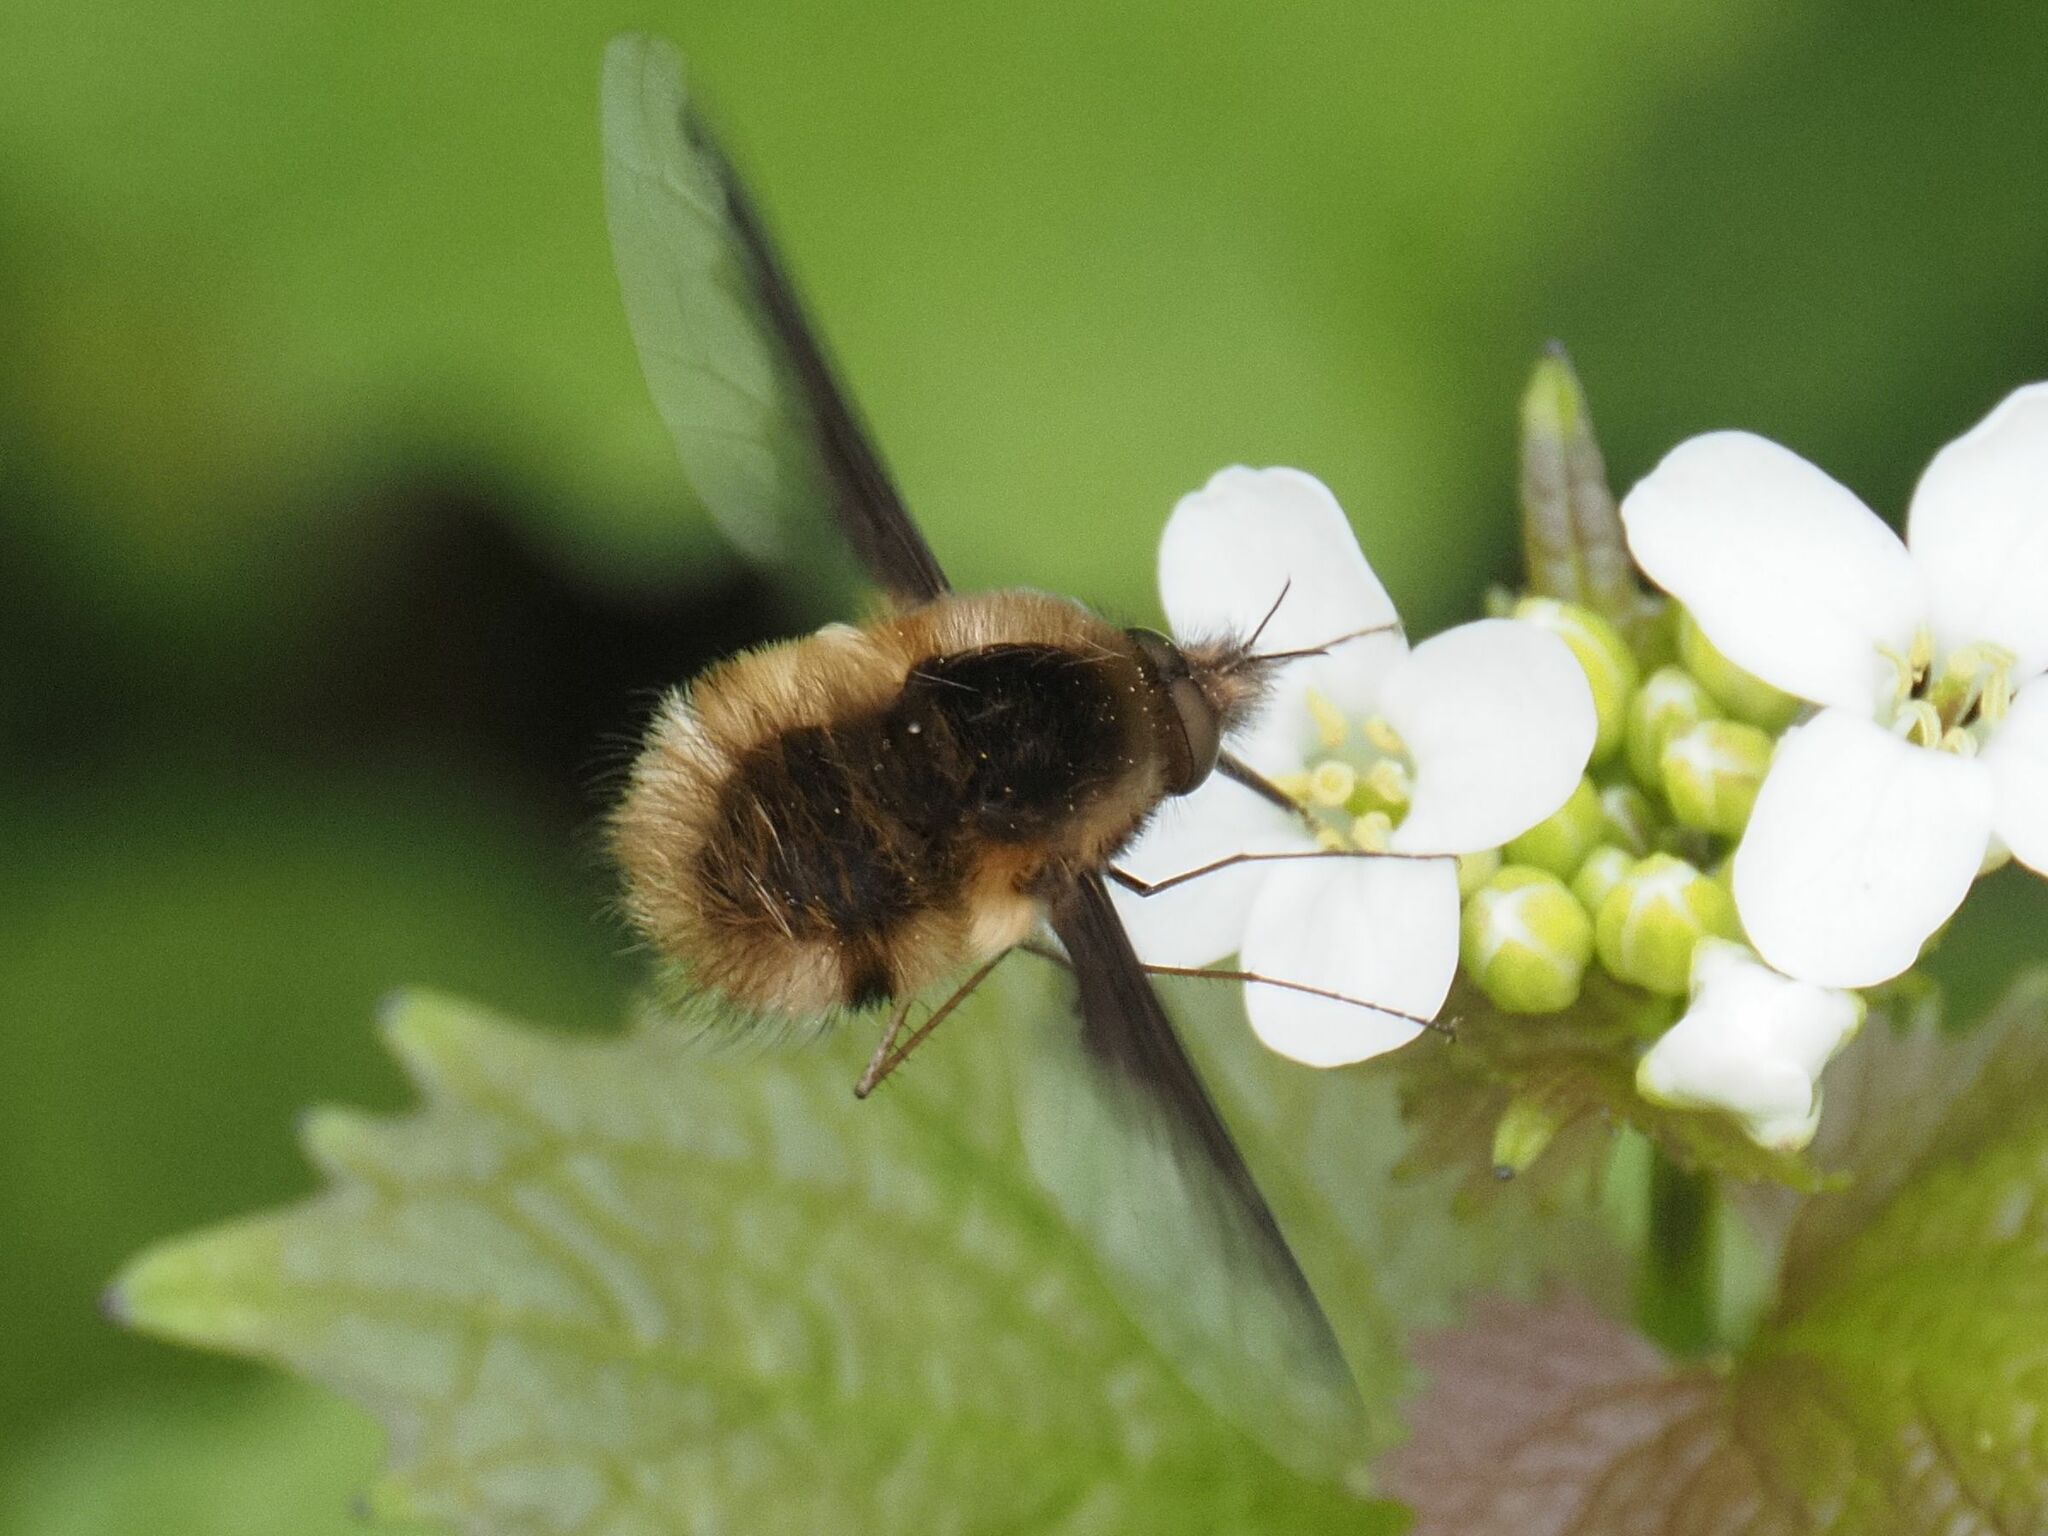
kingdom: Animalia
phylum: Arthropoda
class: Insecta
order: Diptera
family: Bombyliidae
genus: Bombylius
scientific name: Bombylius major
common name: Bee fly
